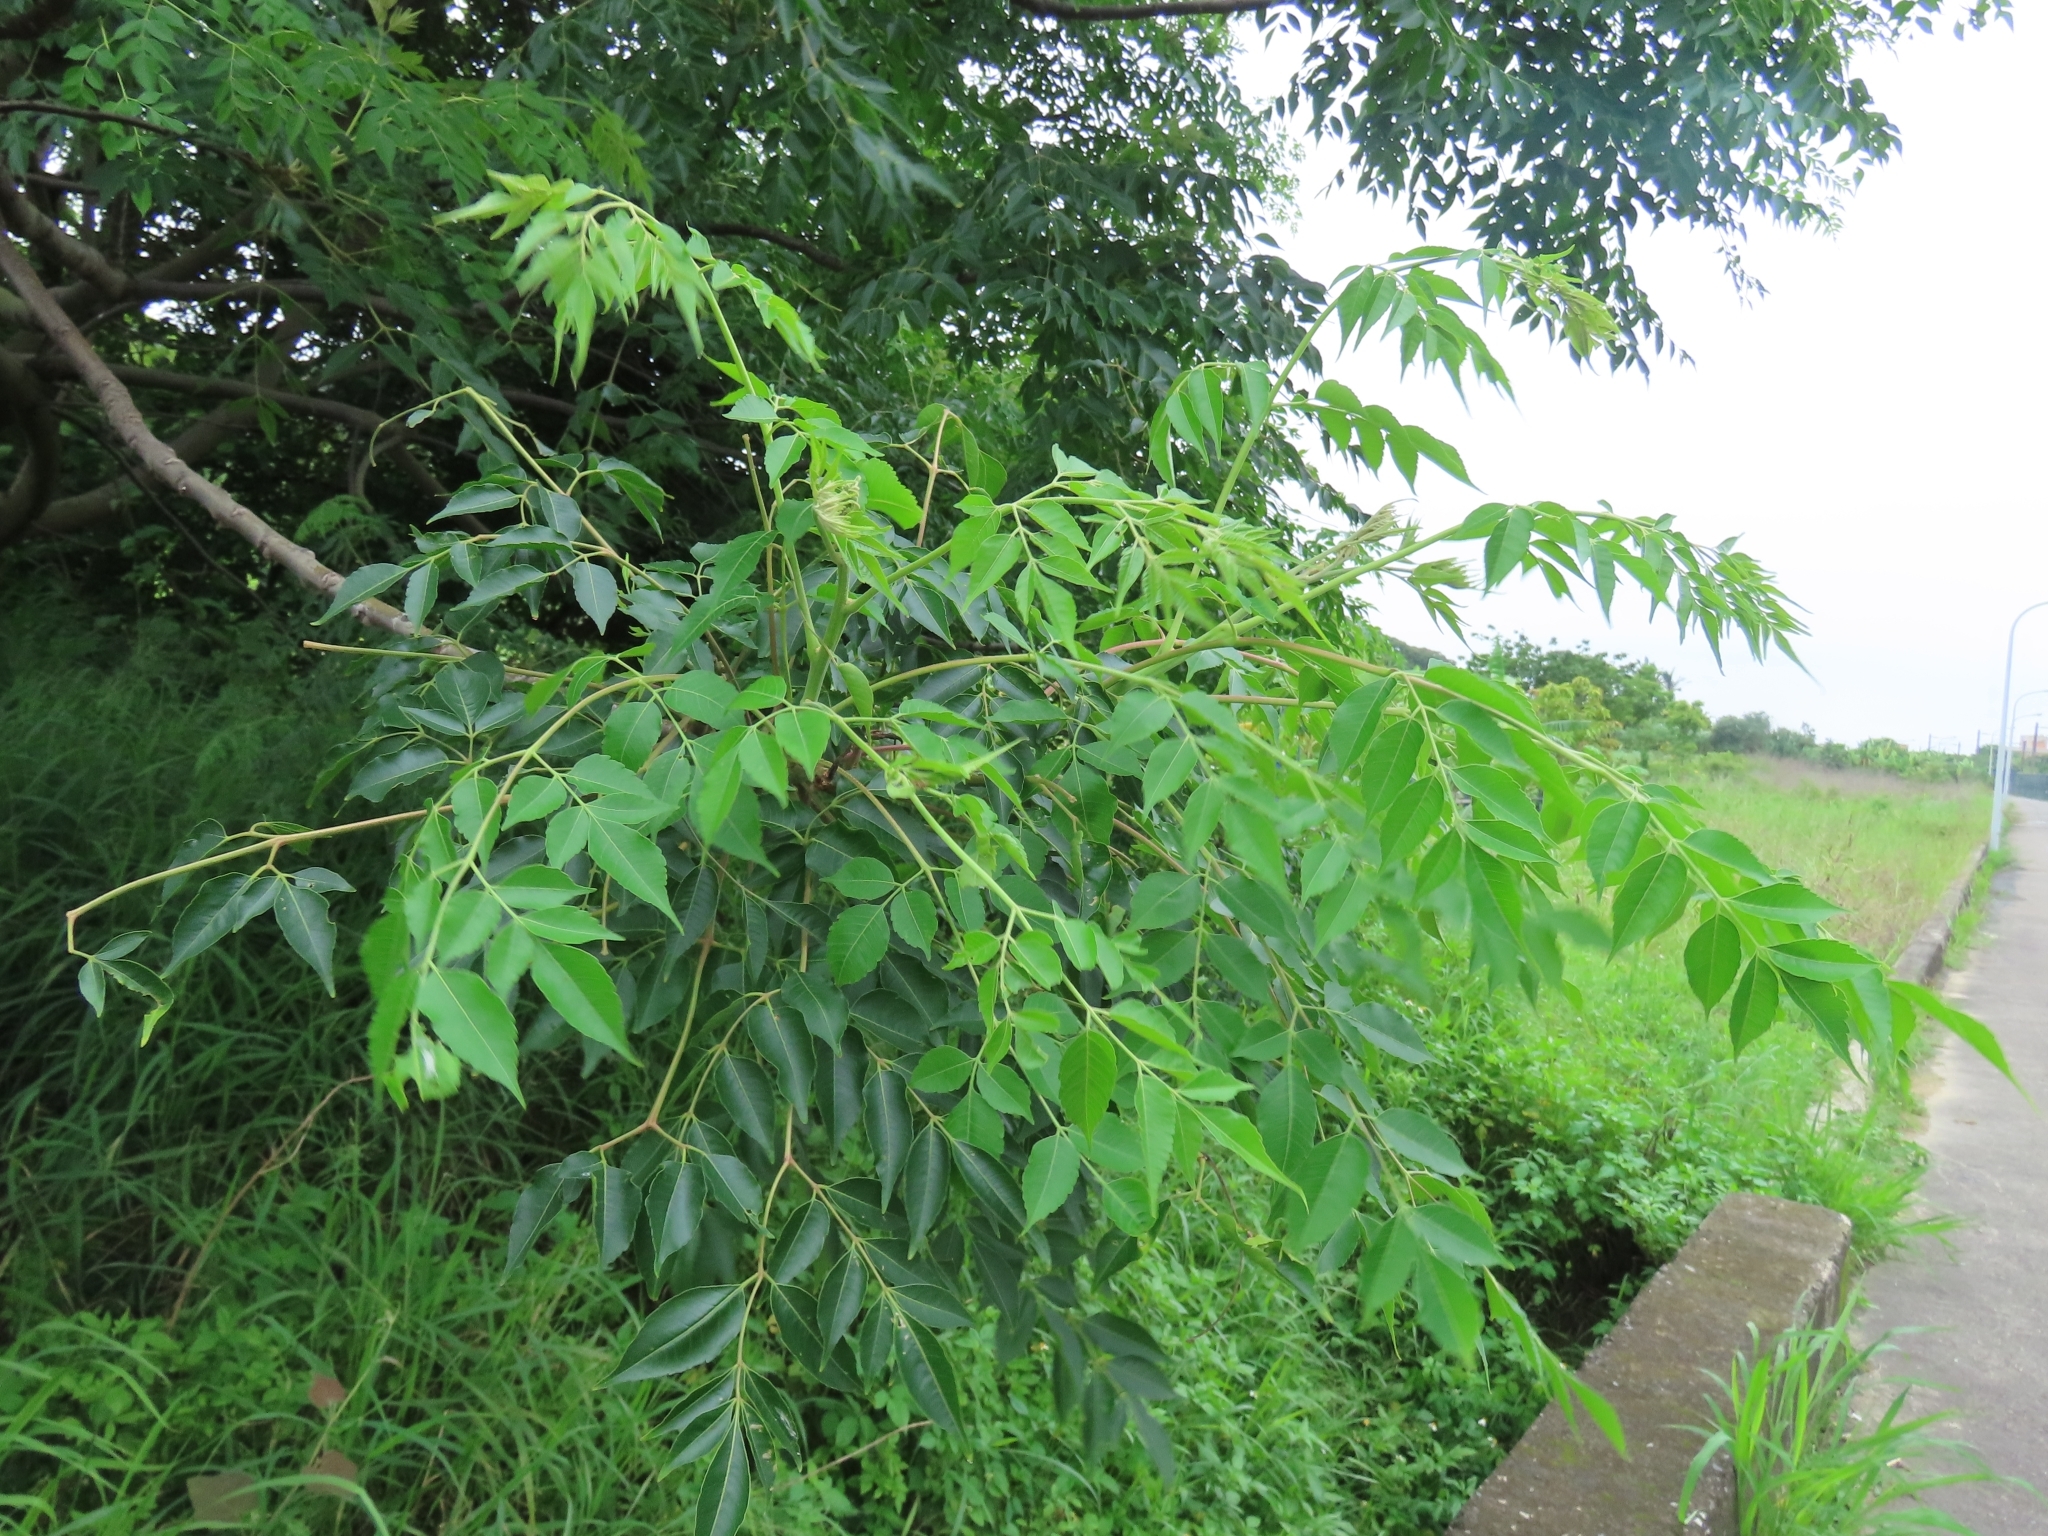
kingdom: Plantae
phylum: Tracheophyta
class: Magnoliopsida
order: Sapindales
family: Meliaceae
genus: Melia
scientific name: Melia azedarach
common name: Chinaberrytree
